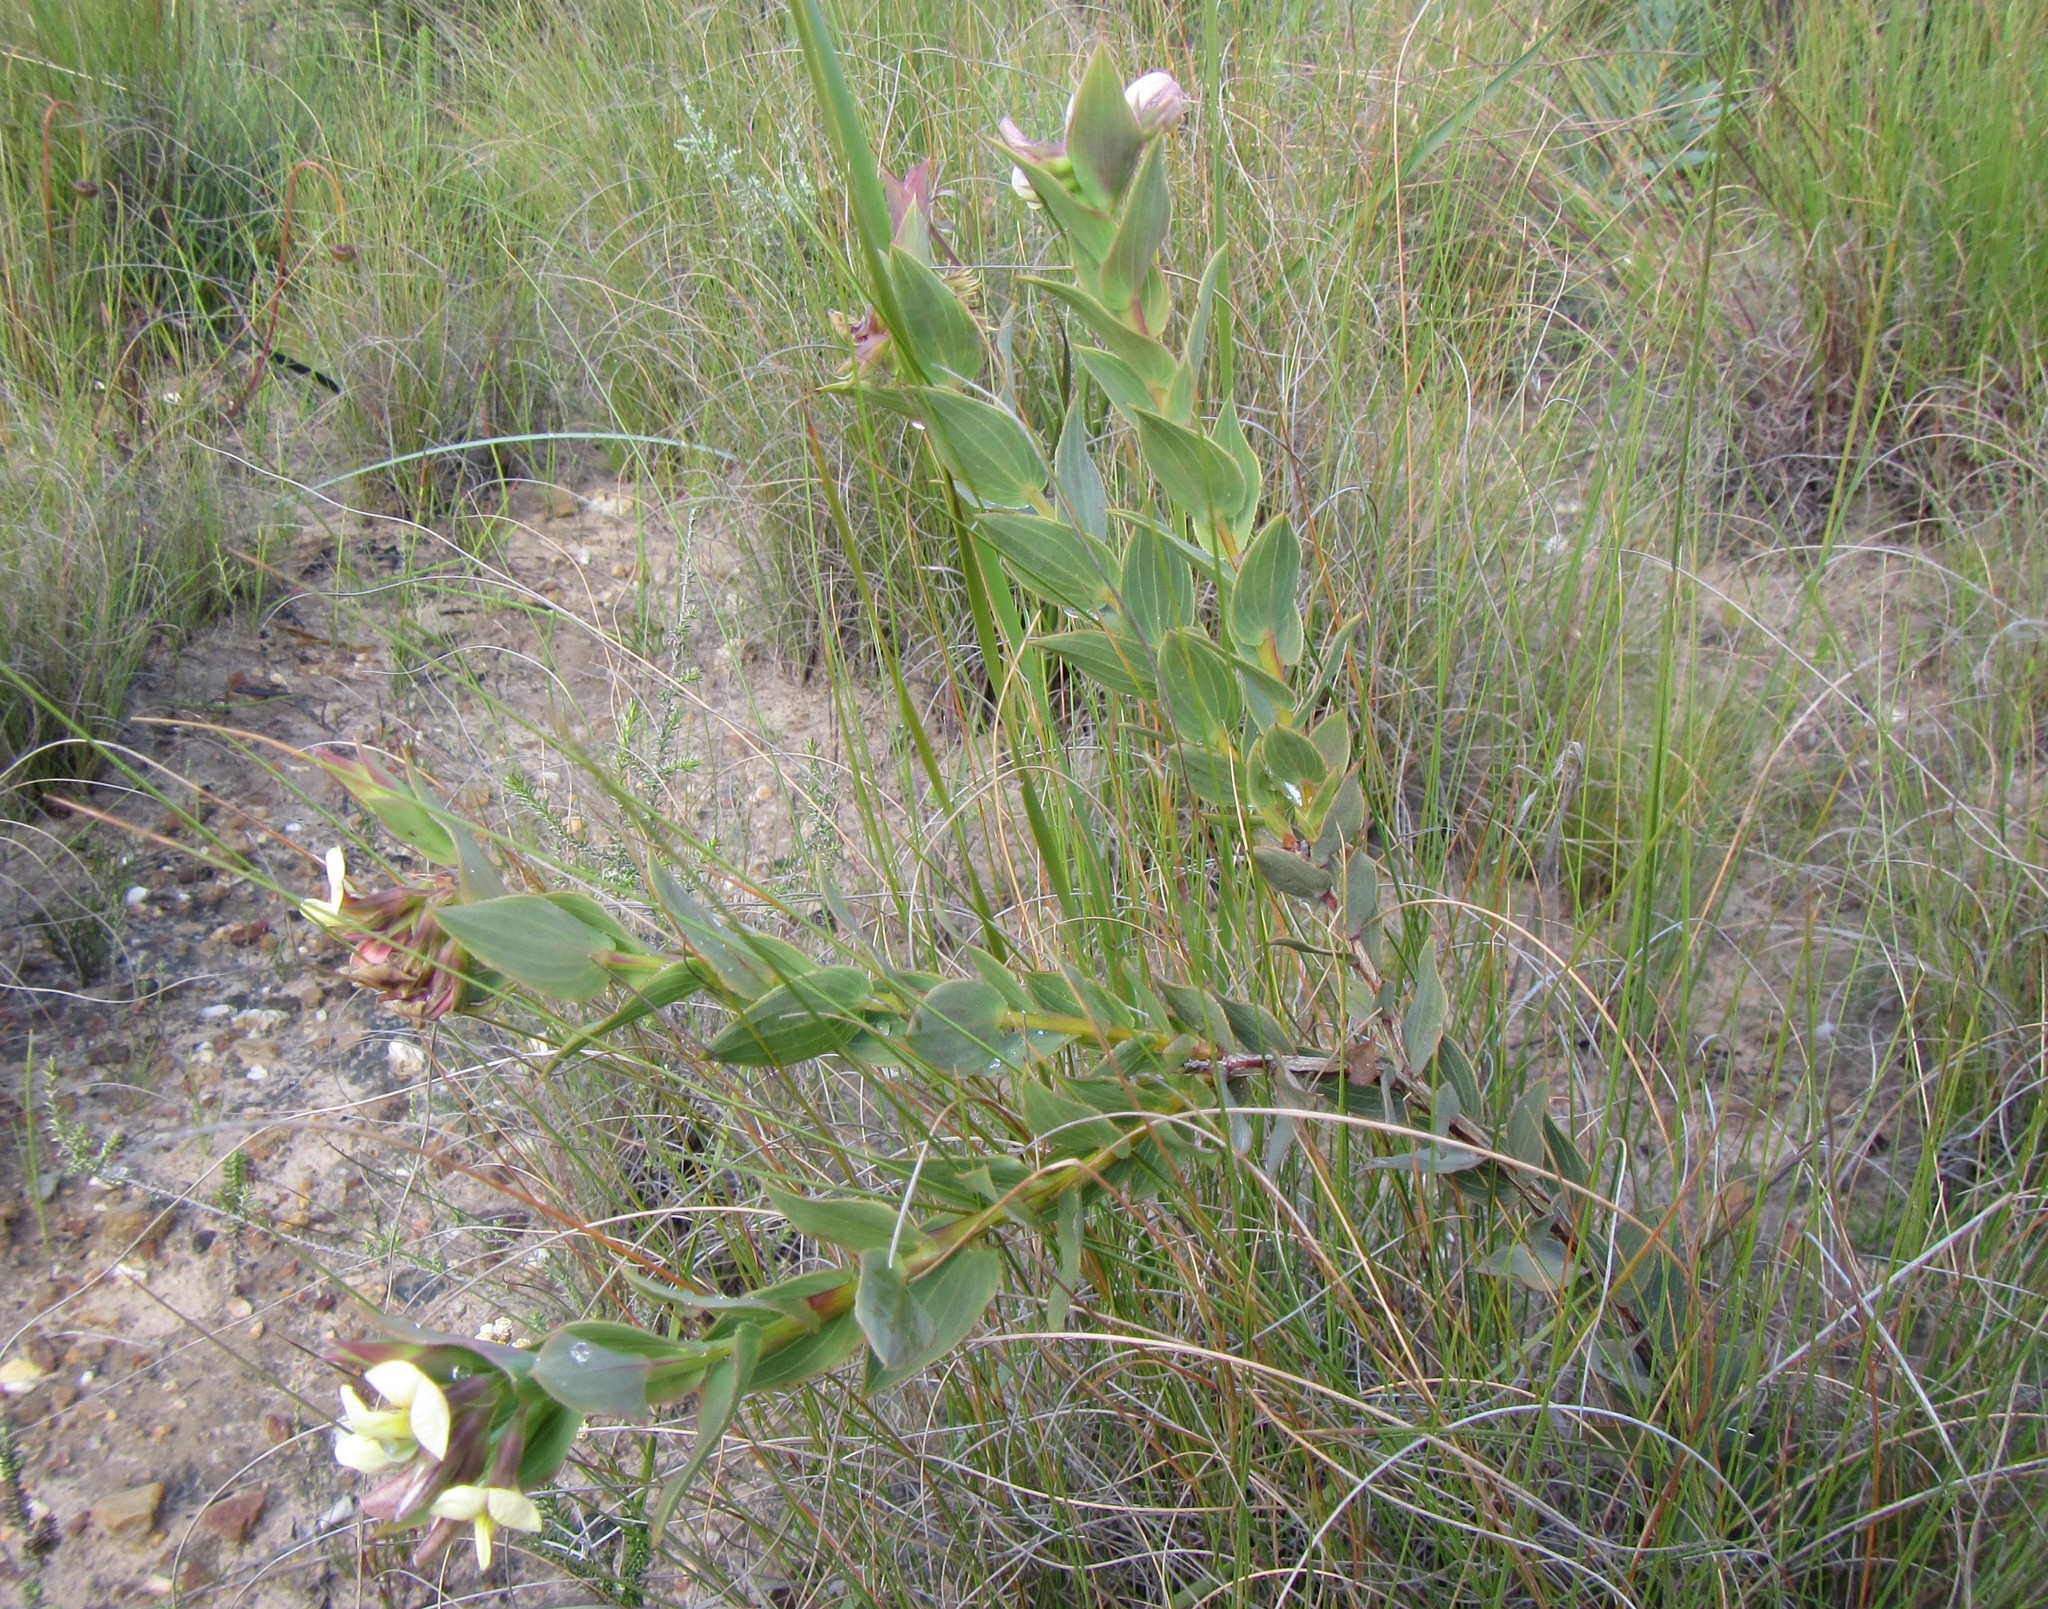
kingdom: Plantae
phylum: Tracheophyta
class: Magnoliopsida
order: Fabales
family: Fabaceae
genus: Aspalathus
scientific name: Aspalathus crenata
